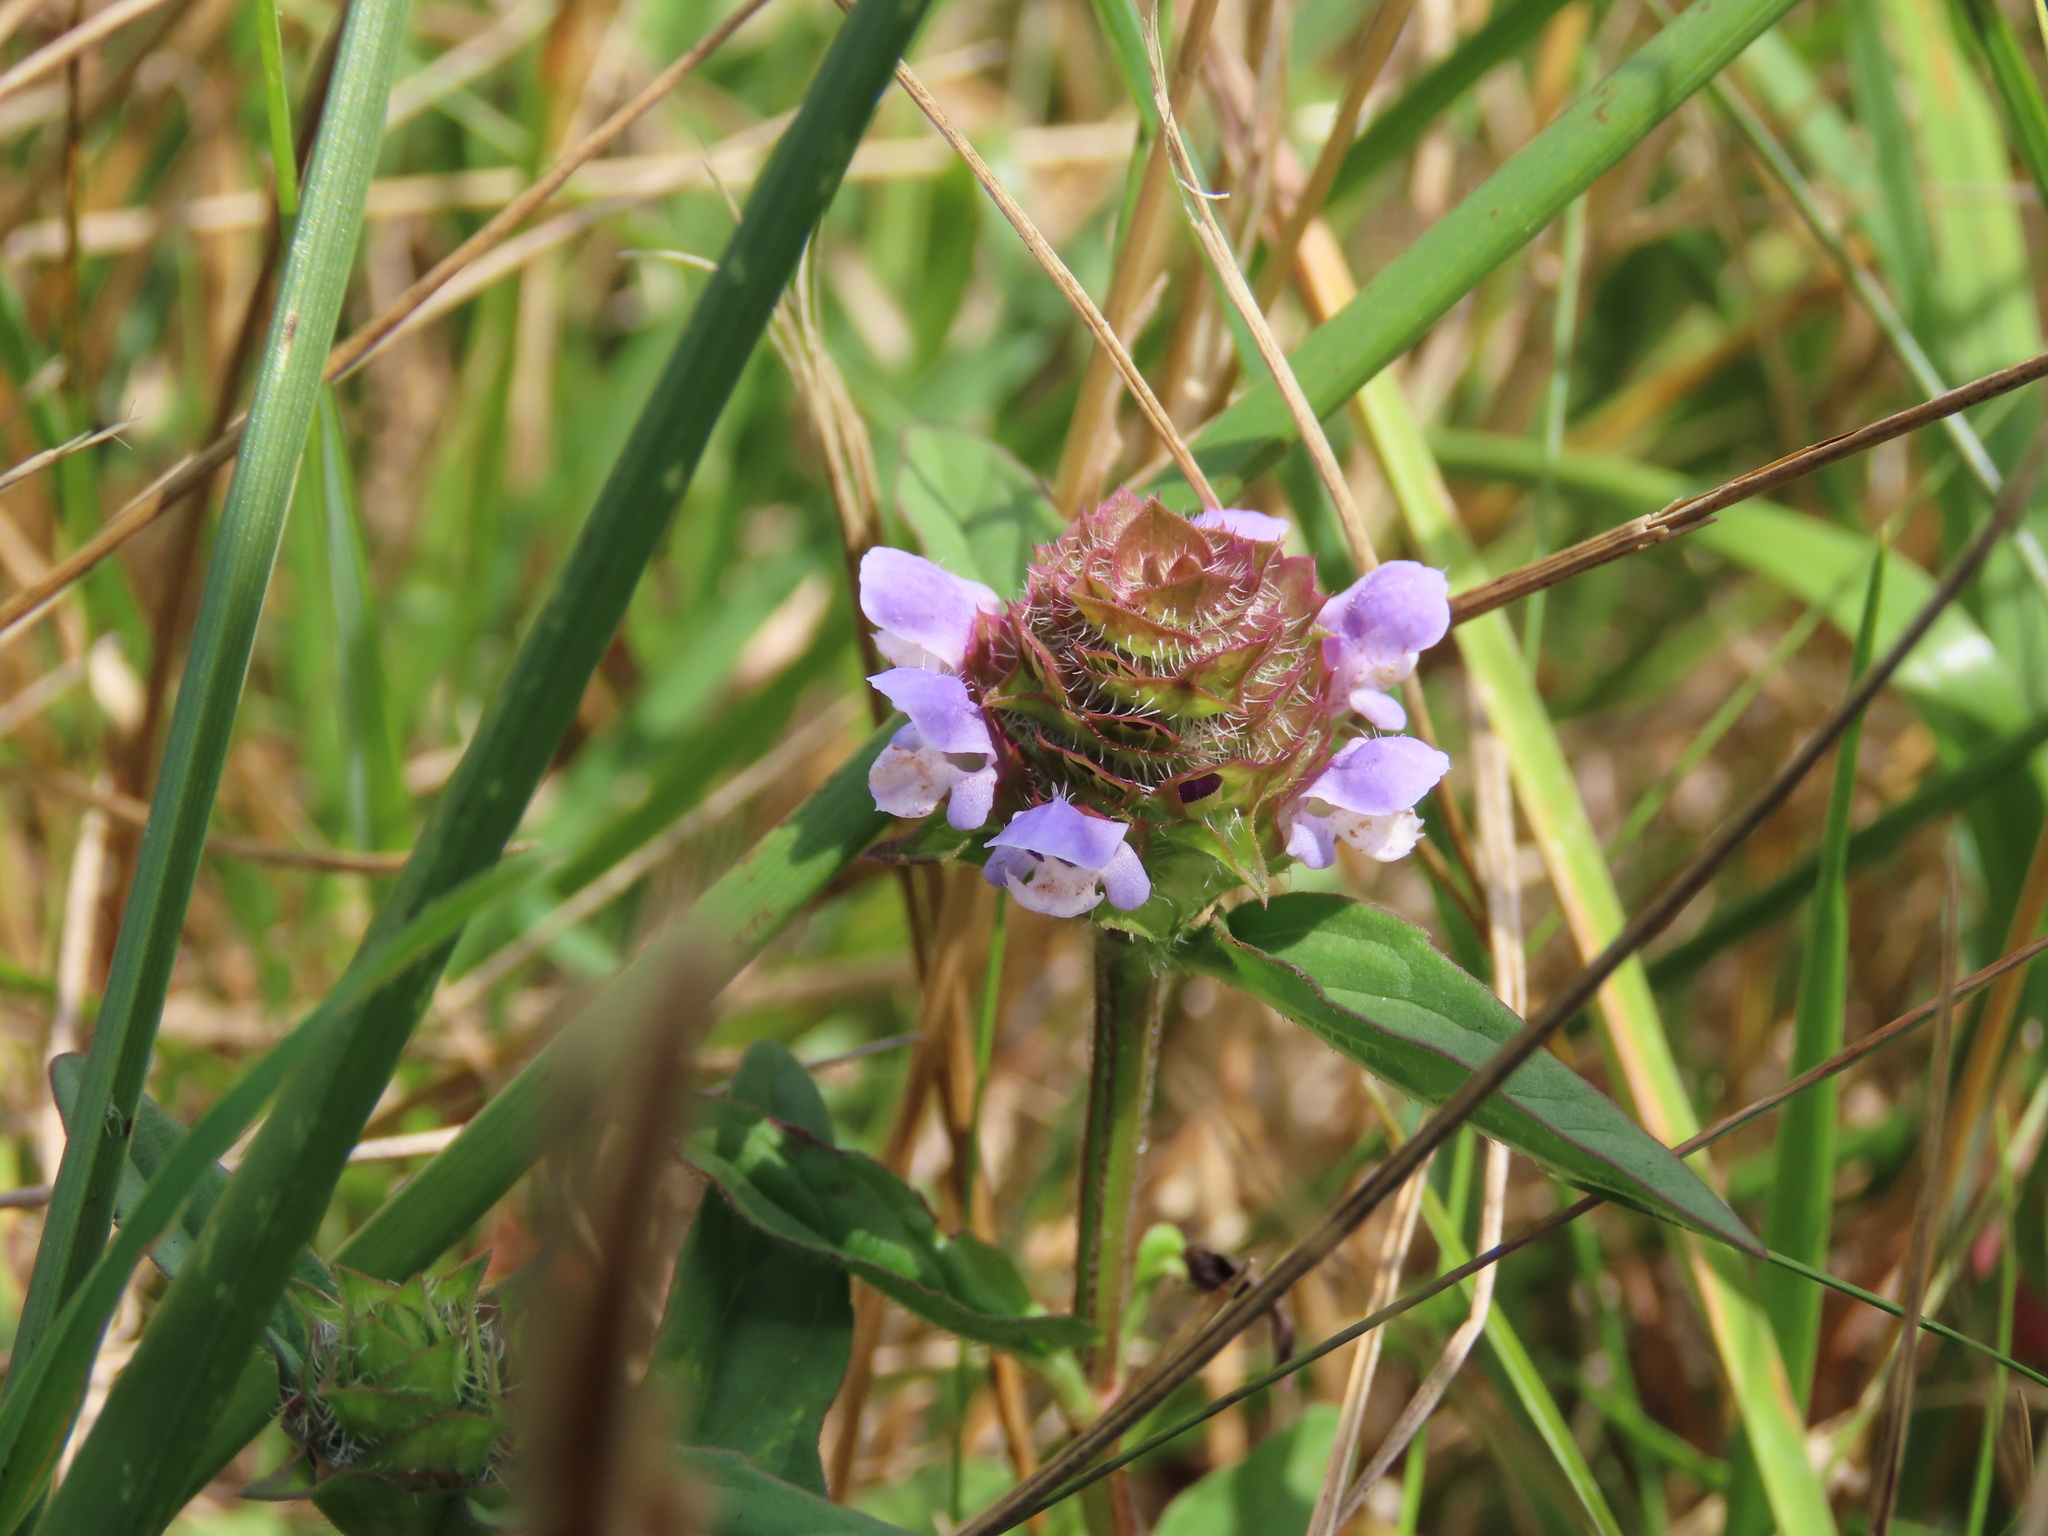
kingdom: Plantae
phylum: Tracheophyta
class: Magnoliopsida
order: Lamiales
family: Lamiaceae
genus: Prunella
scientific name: Prunella vulgaris
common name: Heal-all
